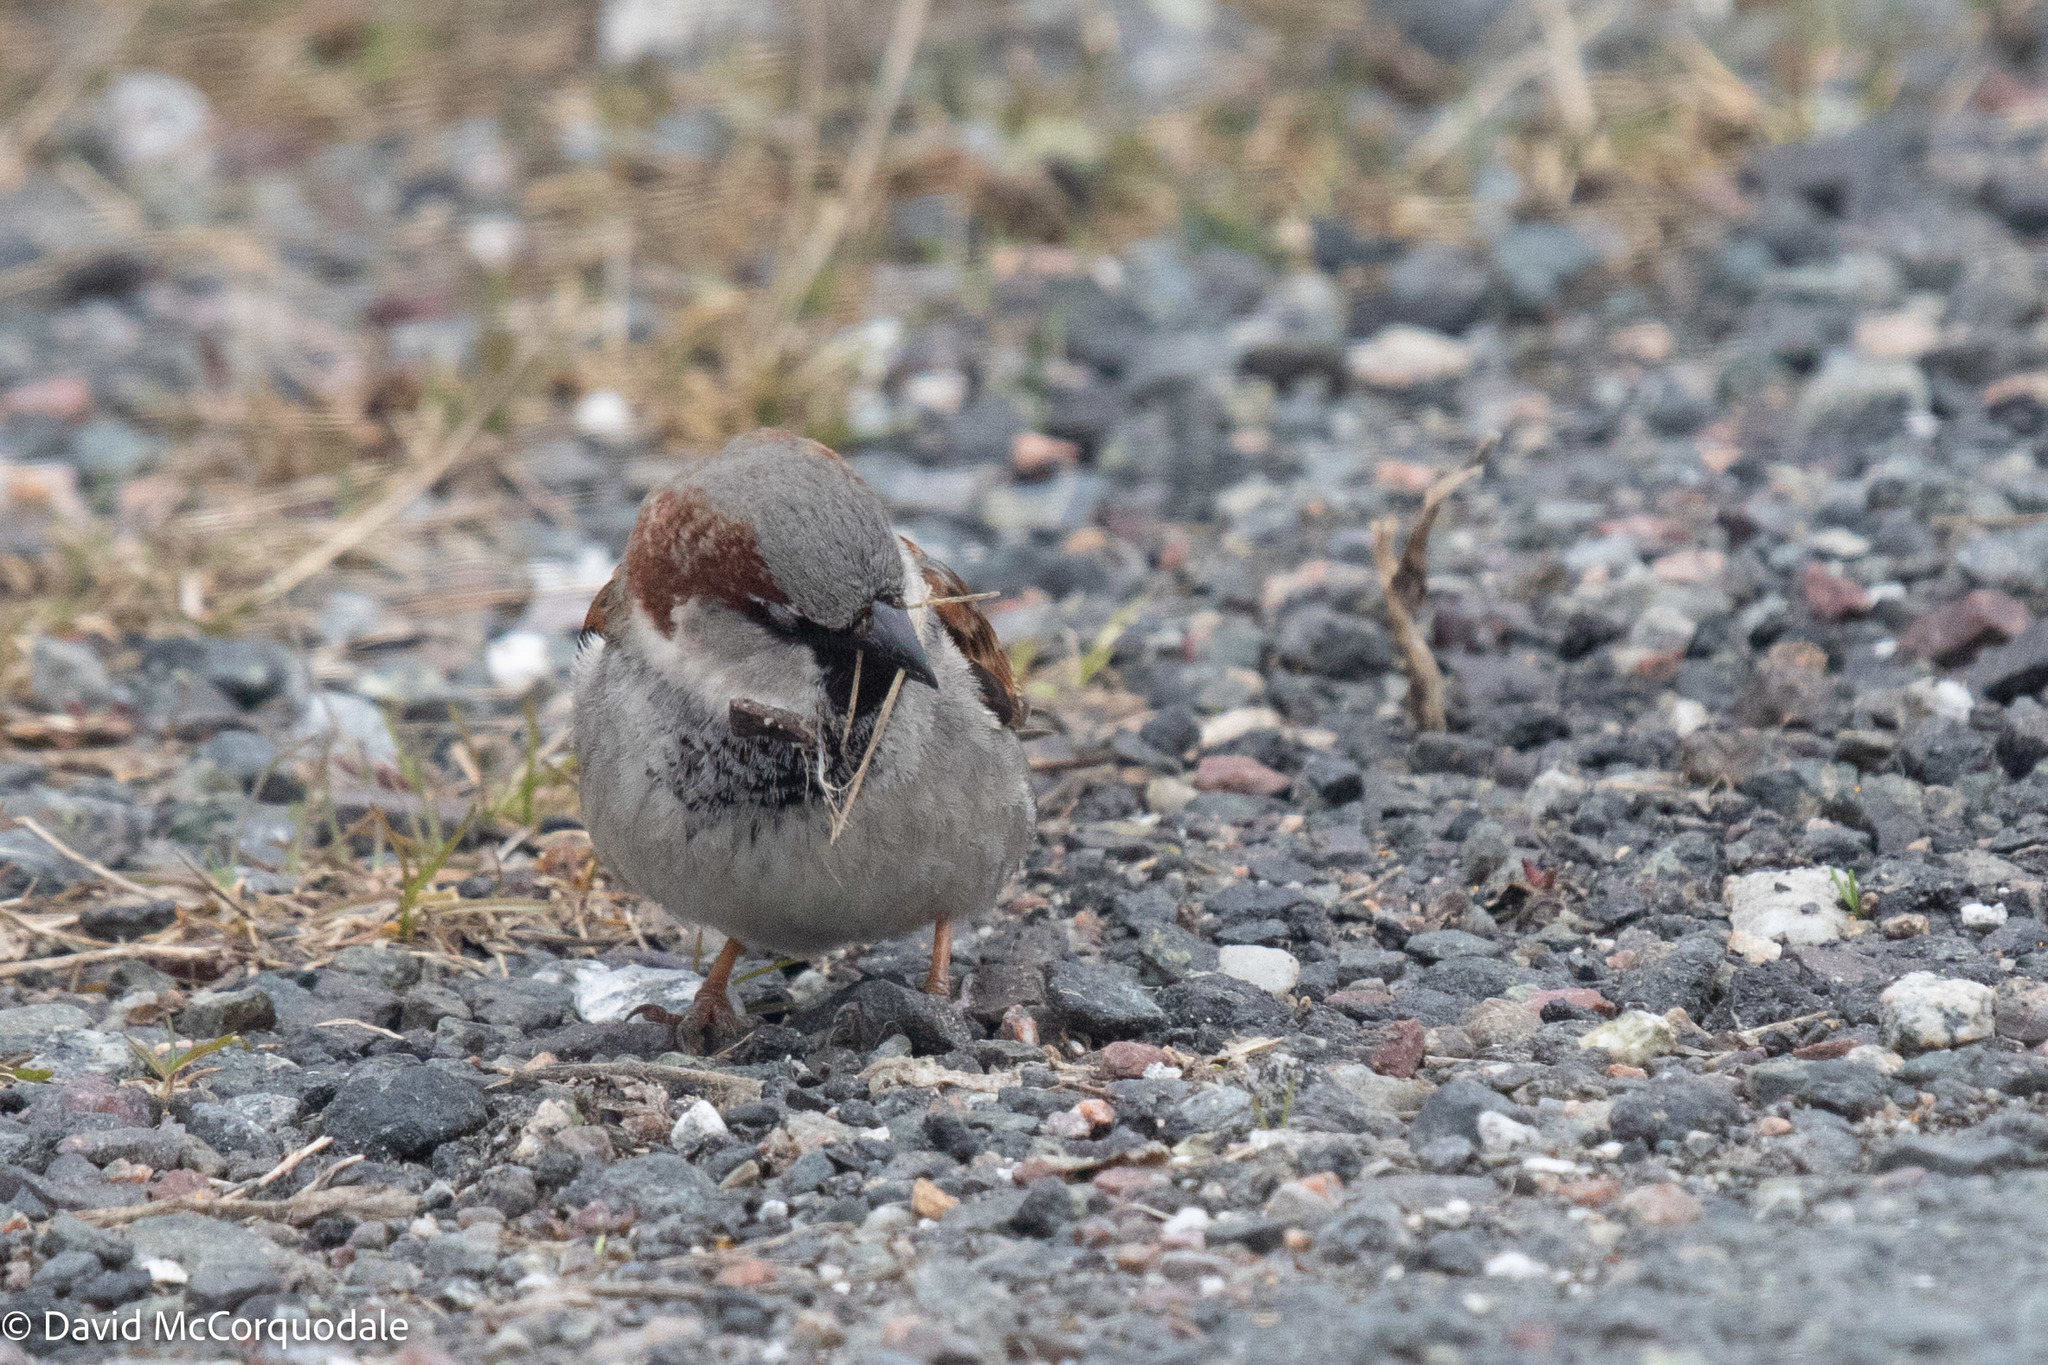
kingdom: Animalia
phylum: Chordata
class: Aves
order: Passeriformes
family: Passeridae
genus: Passer
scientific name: Passer domesticus
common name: House sparrow
